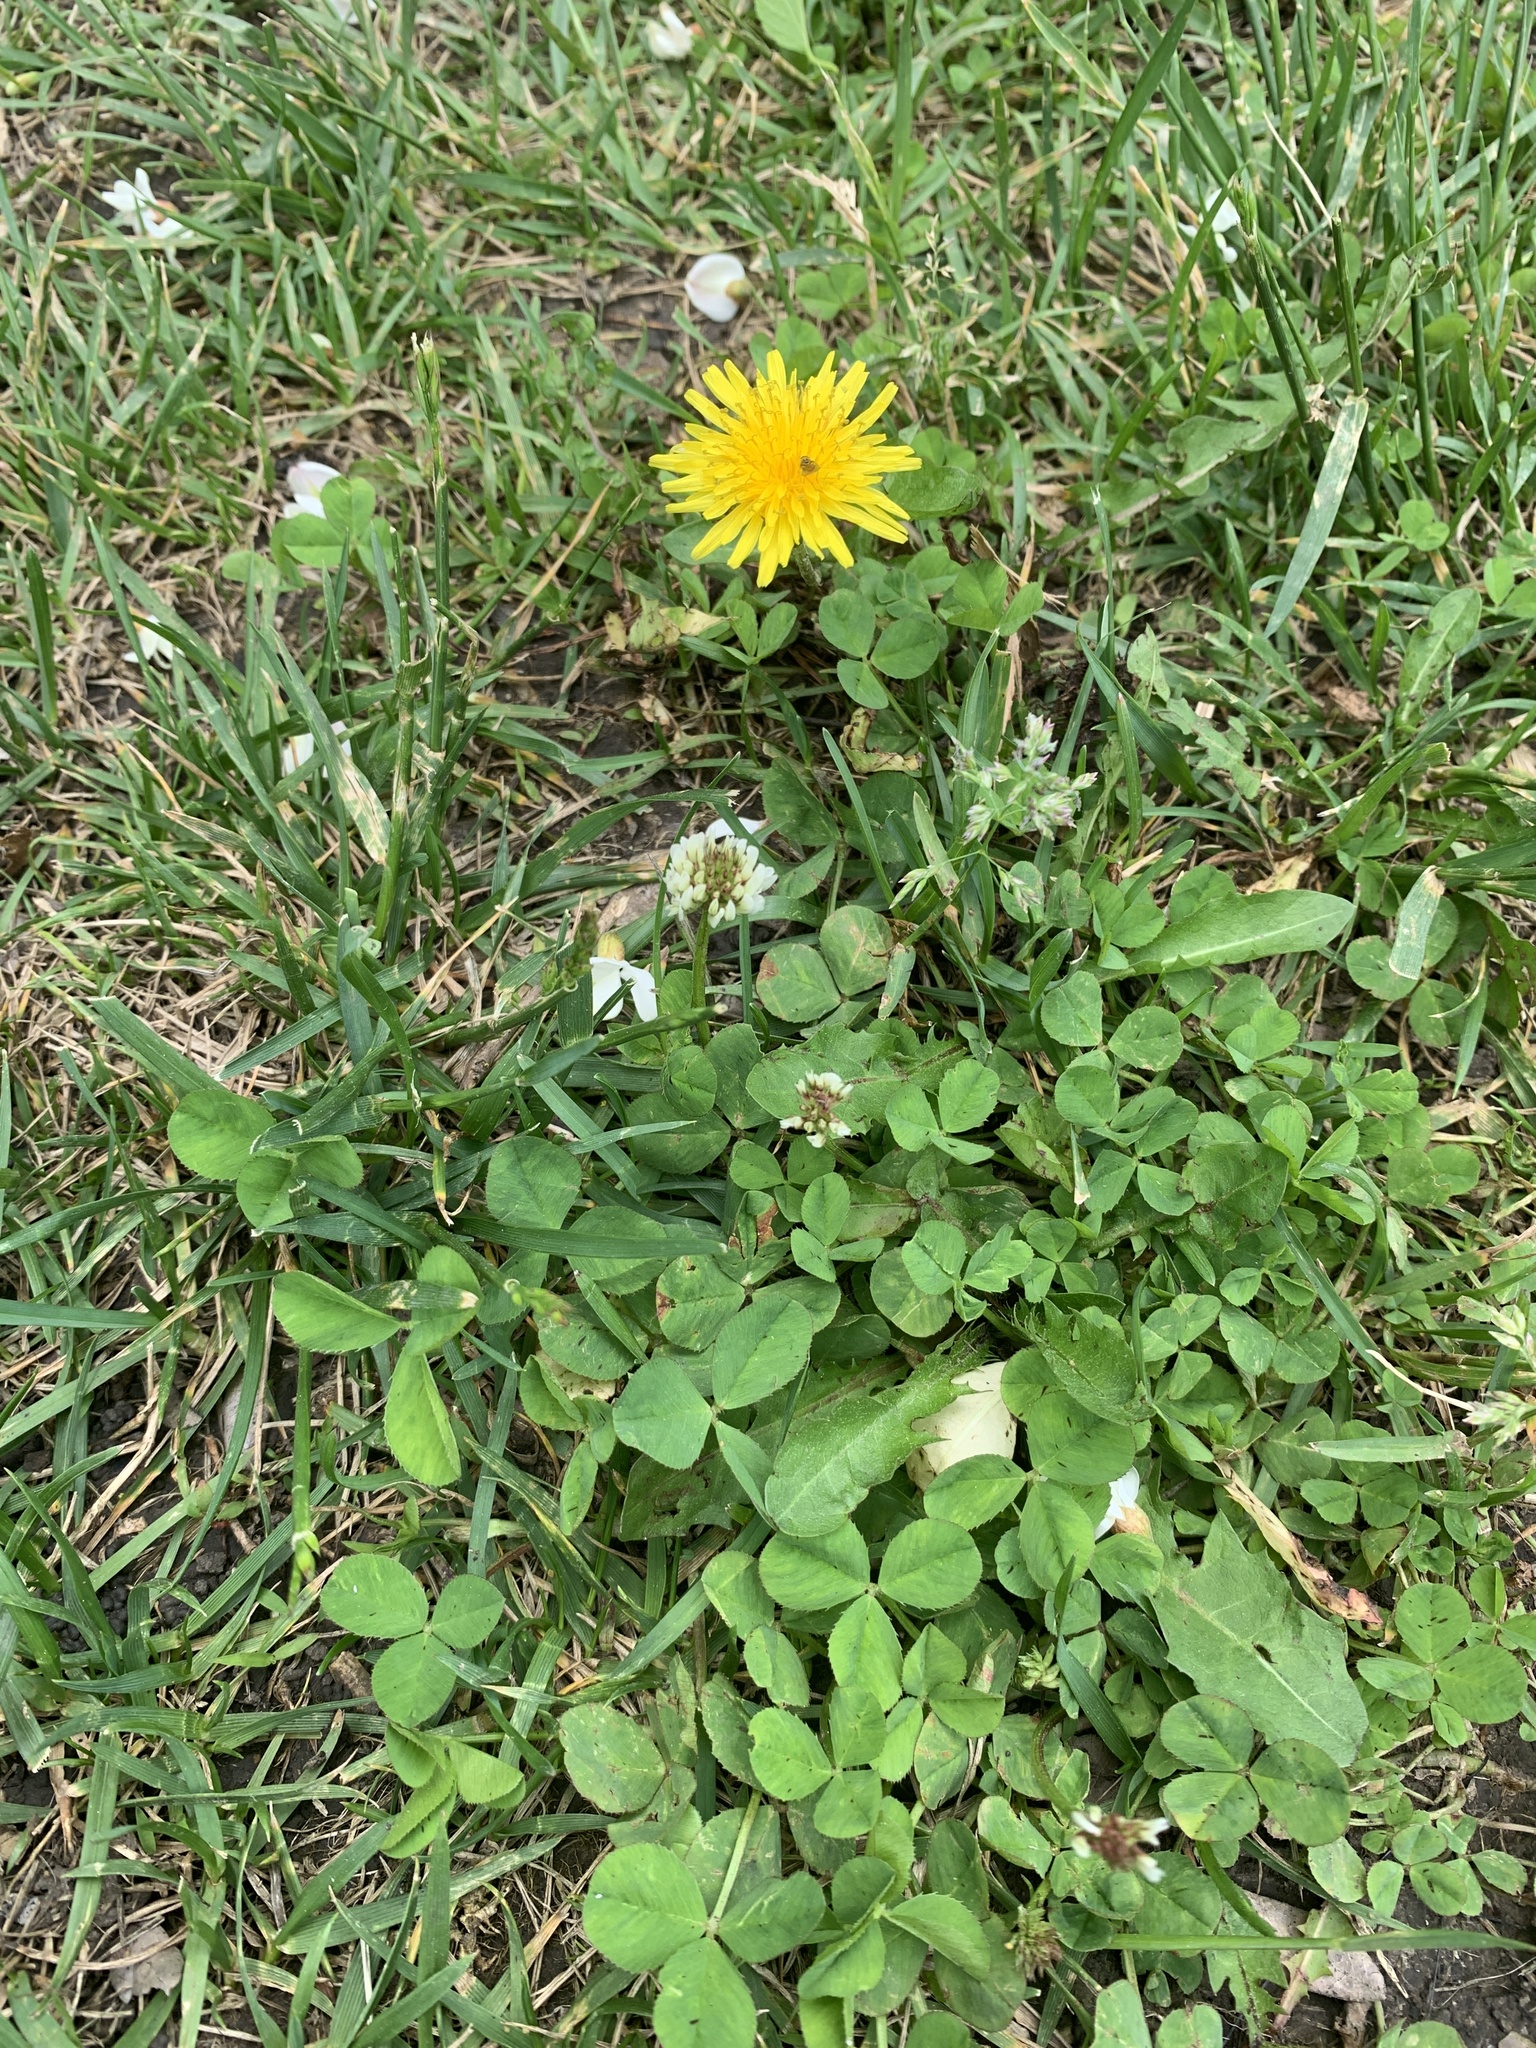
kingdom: Plantae
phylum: Tracheophyta
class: Magnoliopsida
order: Asterales
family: Asteraceae
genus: Taraxacum
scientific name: Taraxacum officinale
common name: Common dandelion
